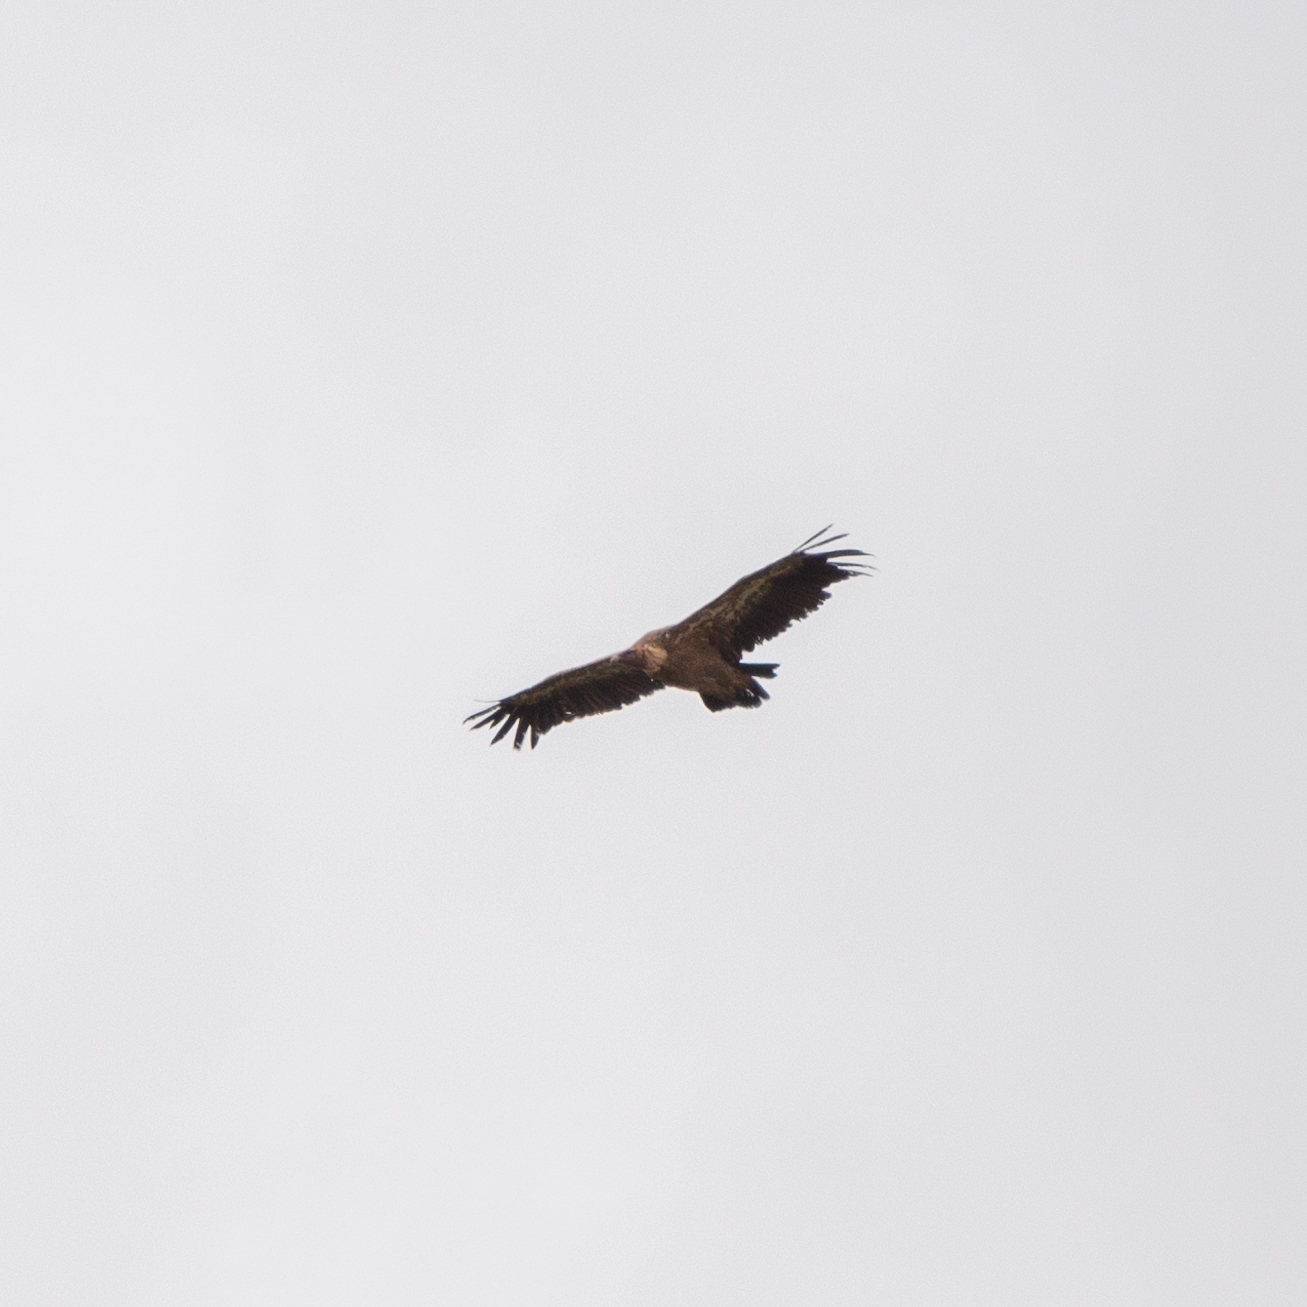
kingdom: Animalia
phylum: Chordata
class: Aves
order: Accipitriformes
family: Accipitridae
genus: Gyps
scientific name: Gyps fulvus
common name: Griffon vulture
